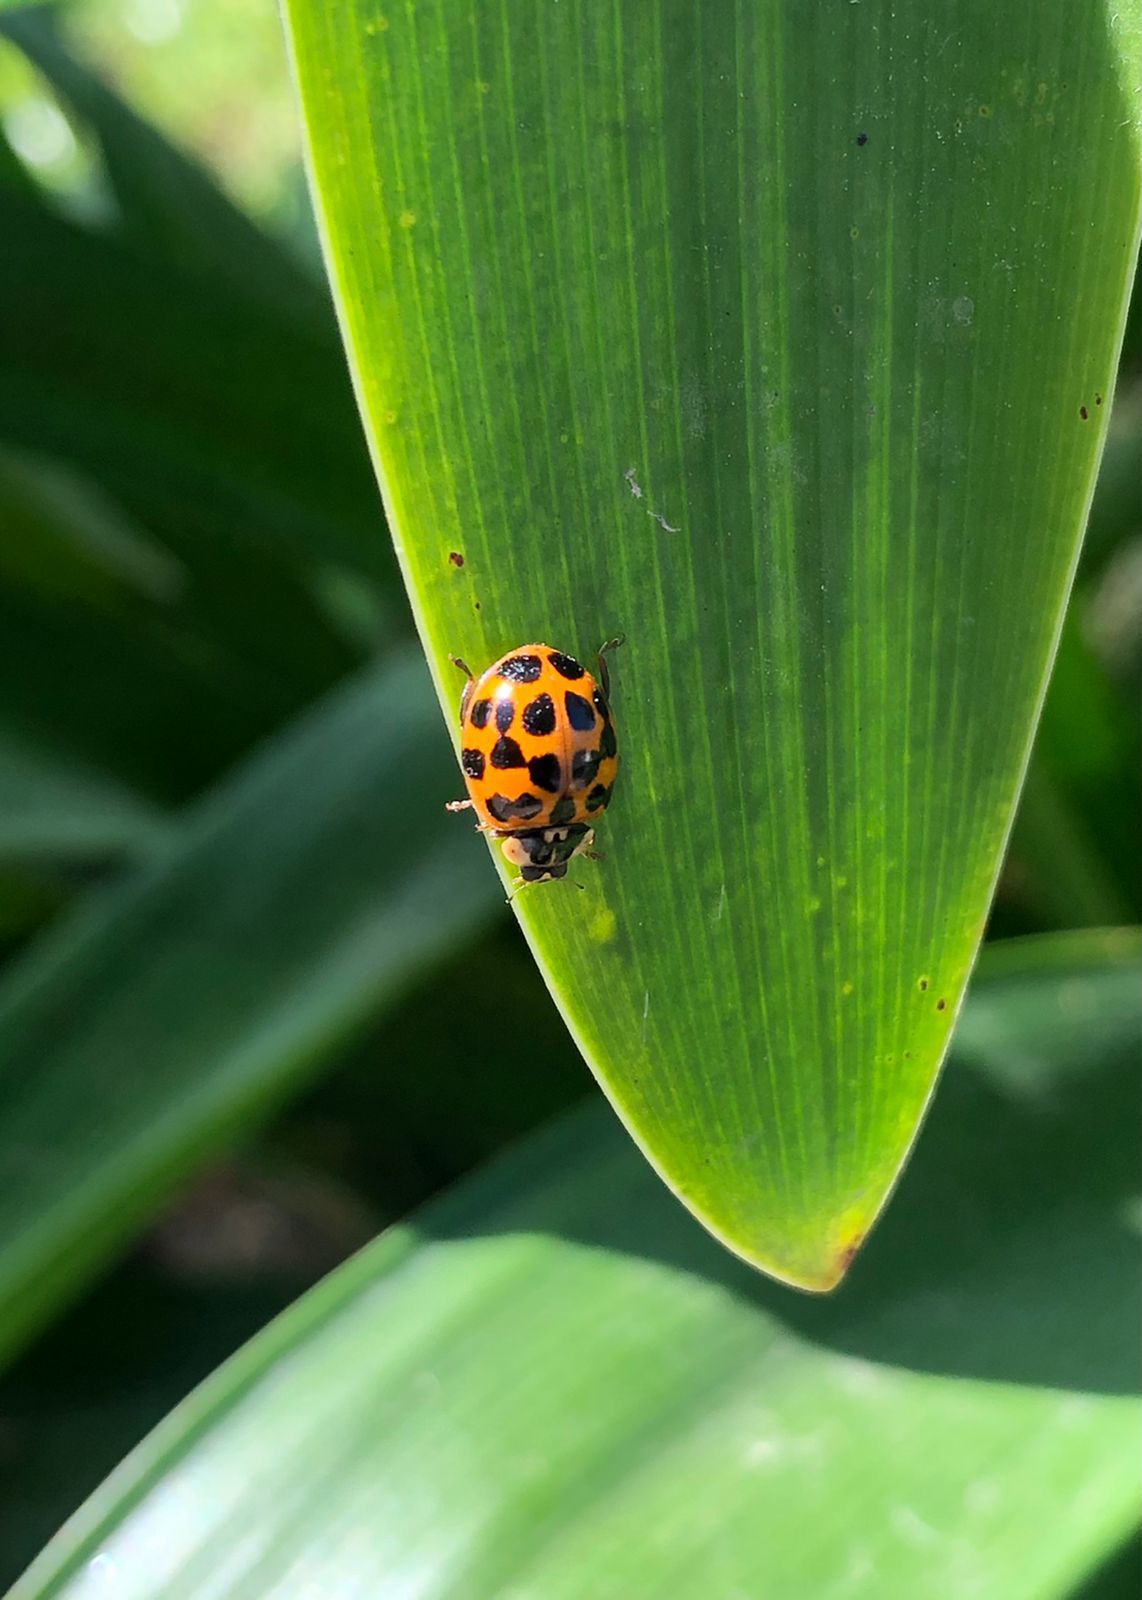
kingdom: Animalia
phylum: Arthropoda
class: Insecta
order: Coleoptera
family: Coccinellidae
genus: Harmonia
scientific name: Harmonia axyridis
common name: Harlequin ladybird
